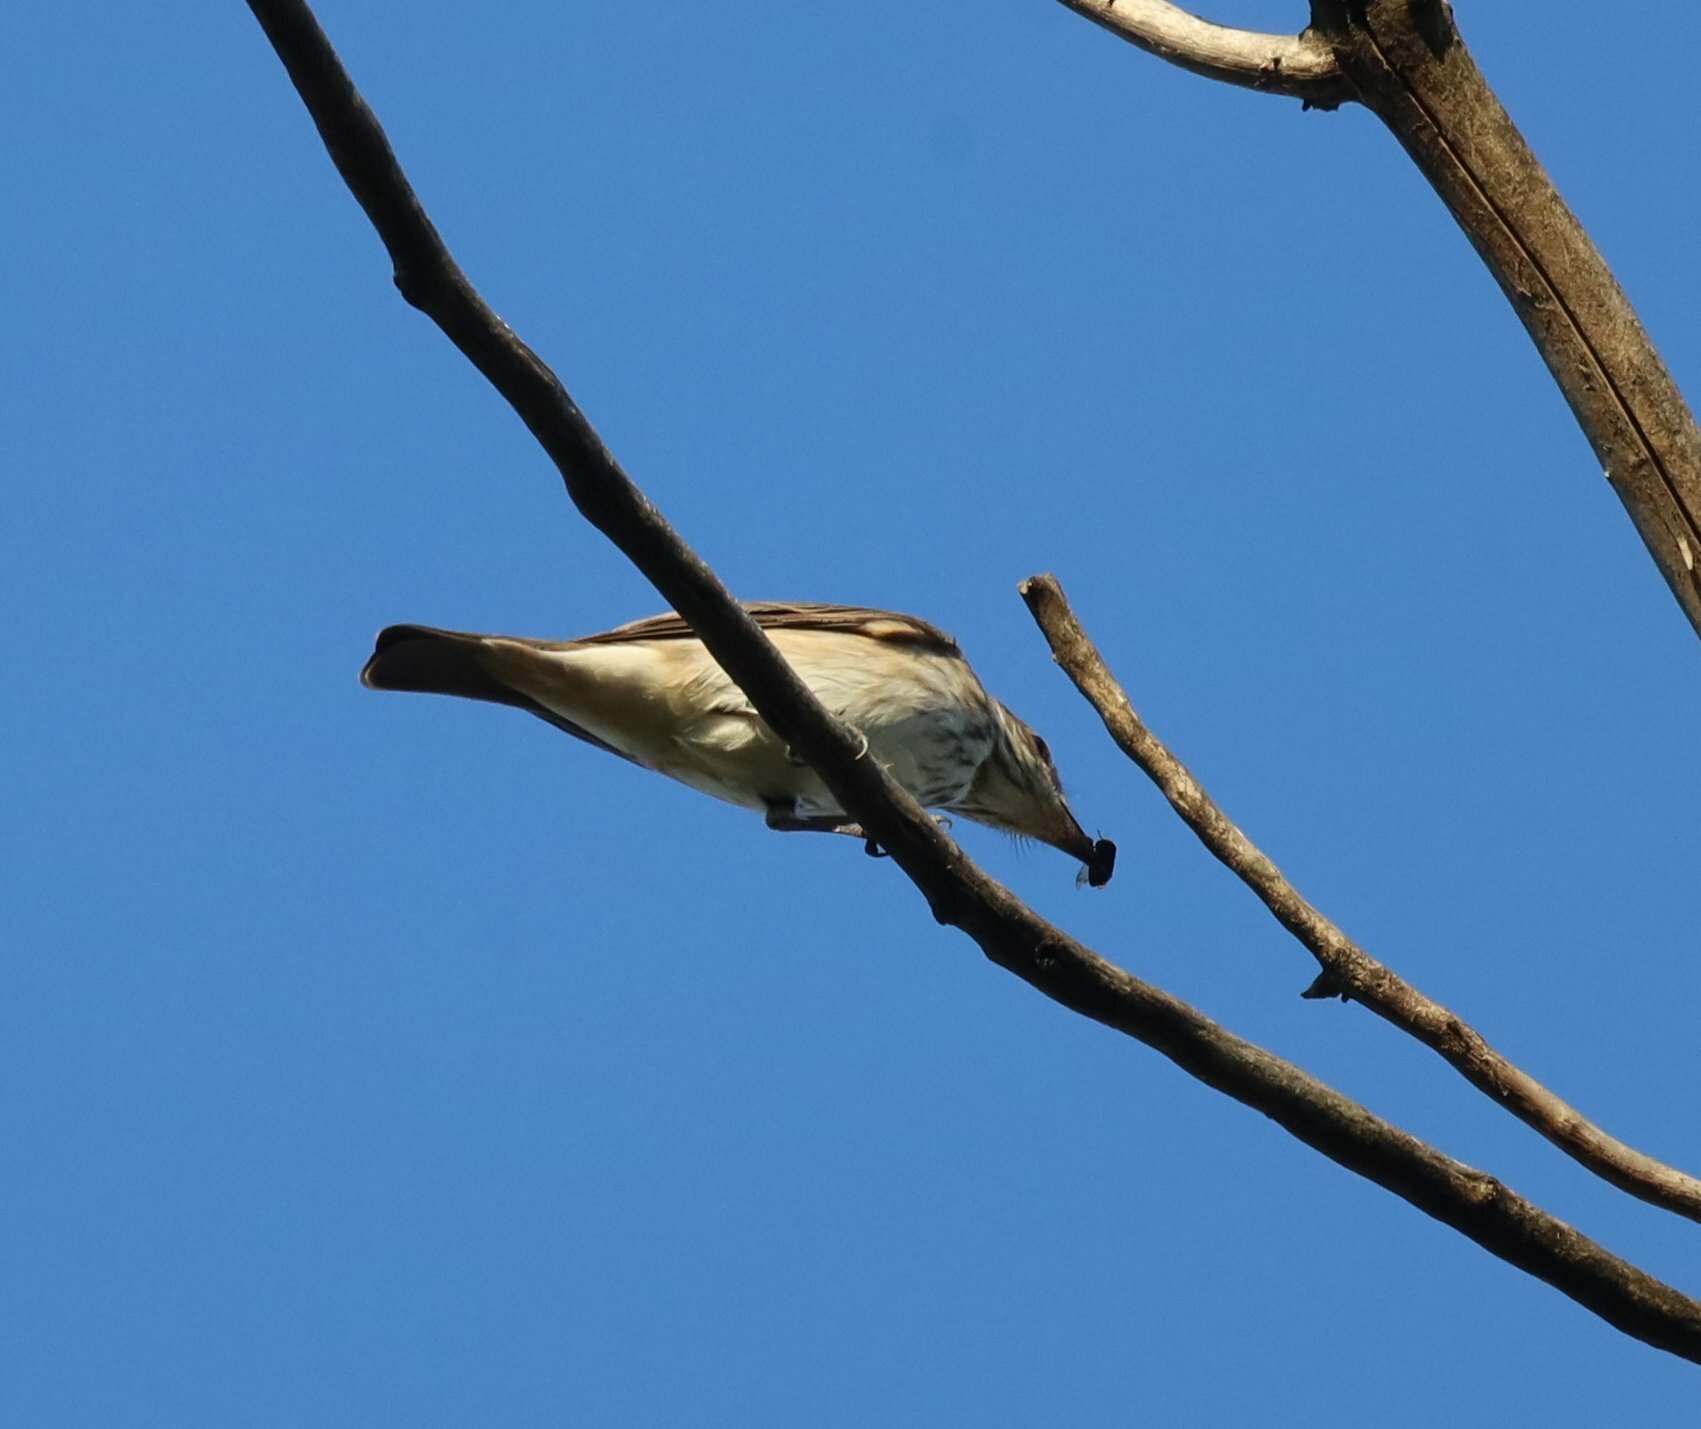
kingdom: Animalia
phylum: Chordata
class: Aves
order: Passeriformes
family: Muscicapidae
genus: Muscicapa
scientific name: Muscicapa striata
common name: Spotted flycatcher
